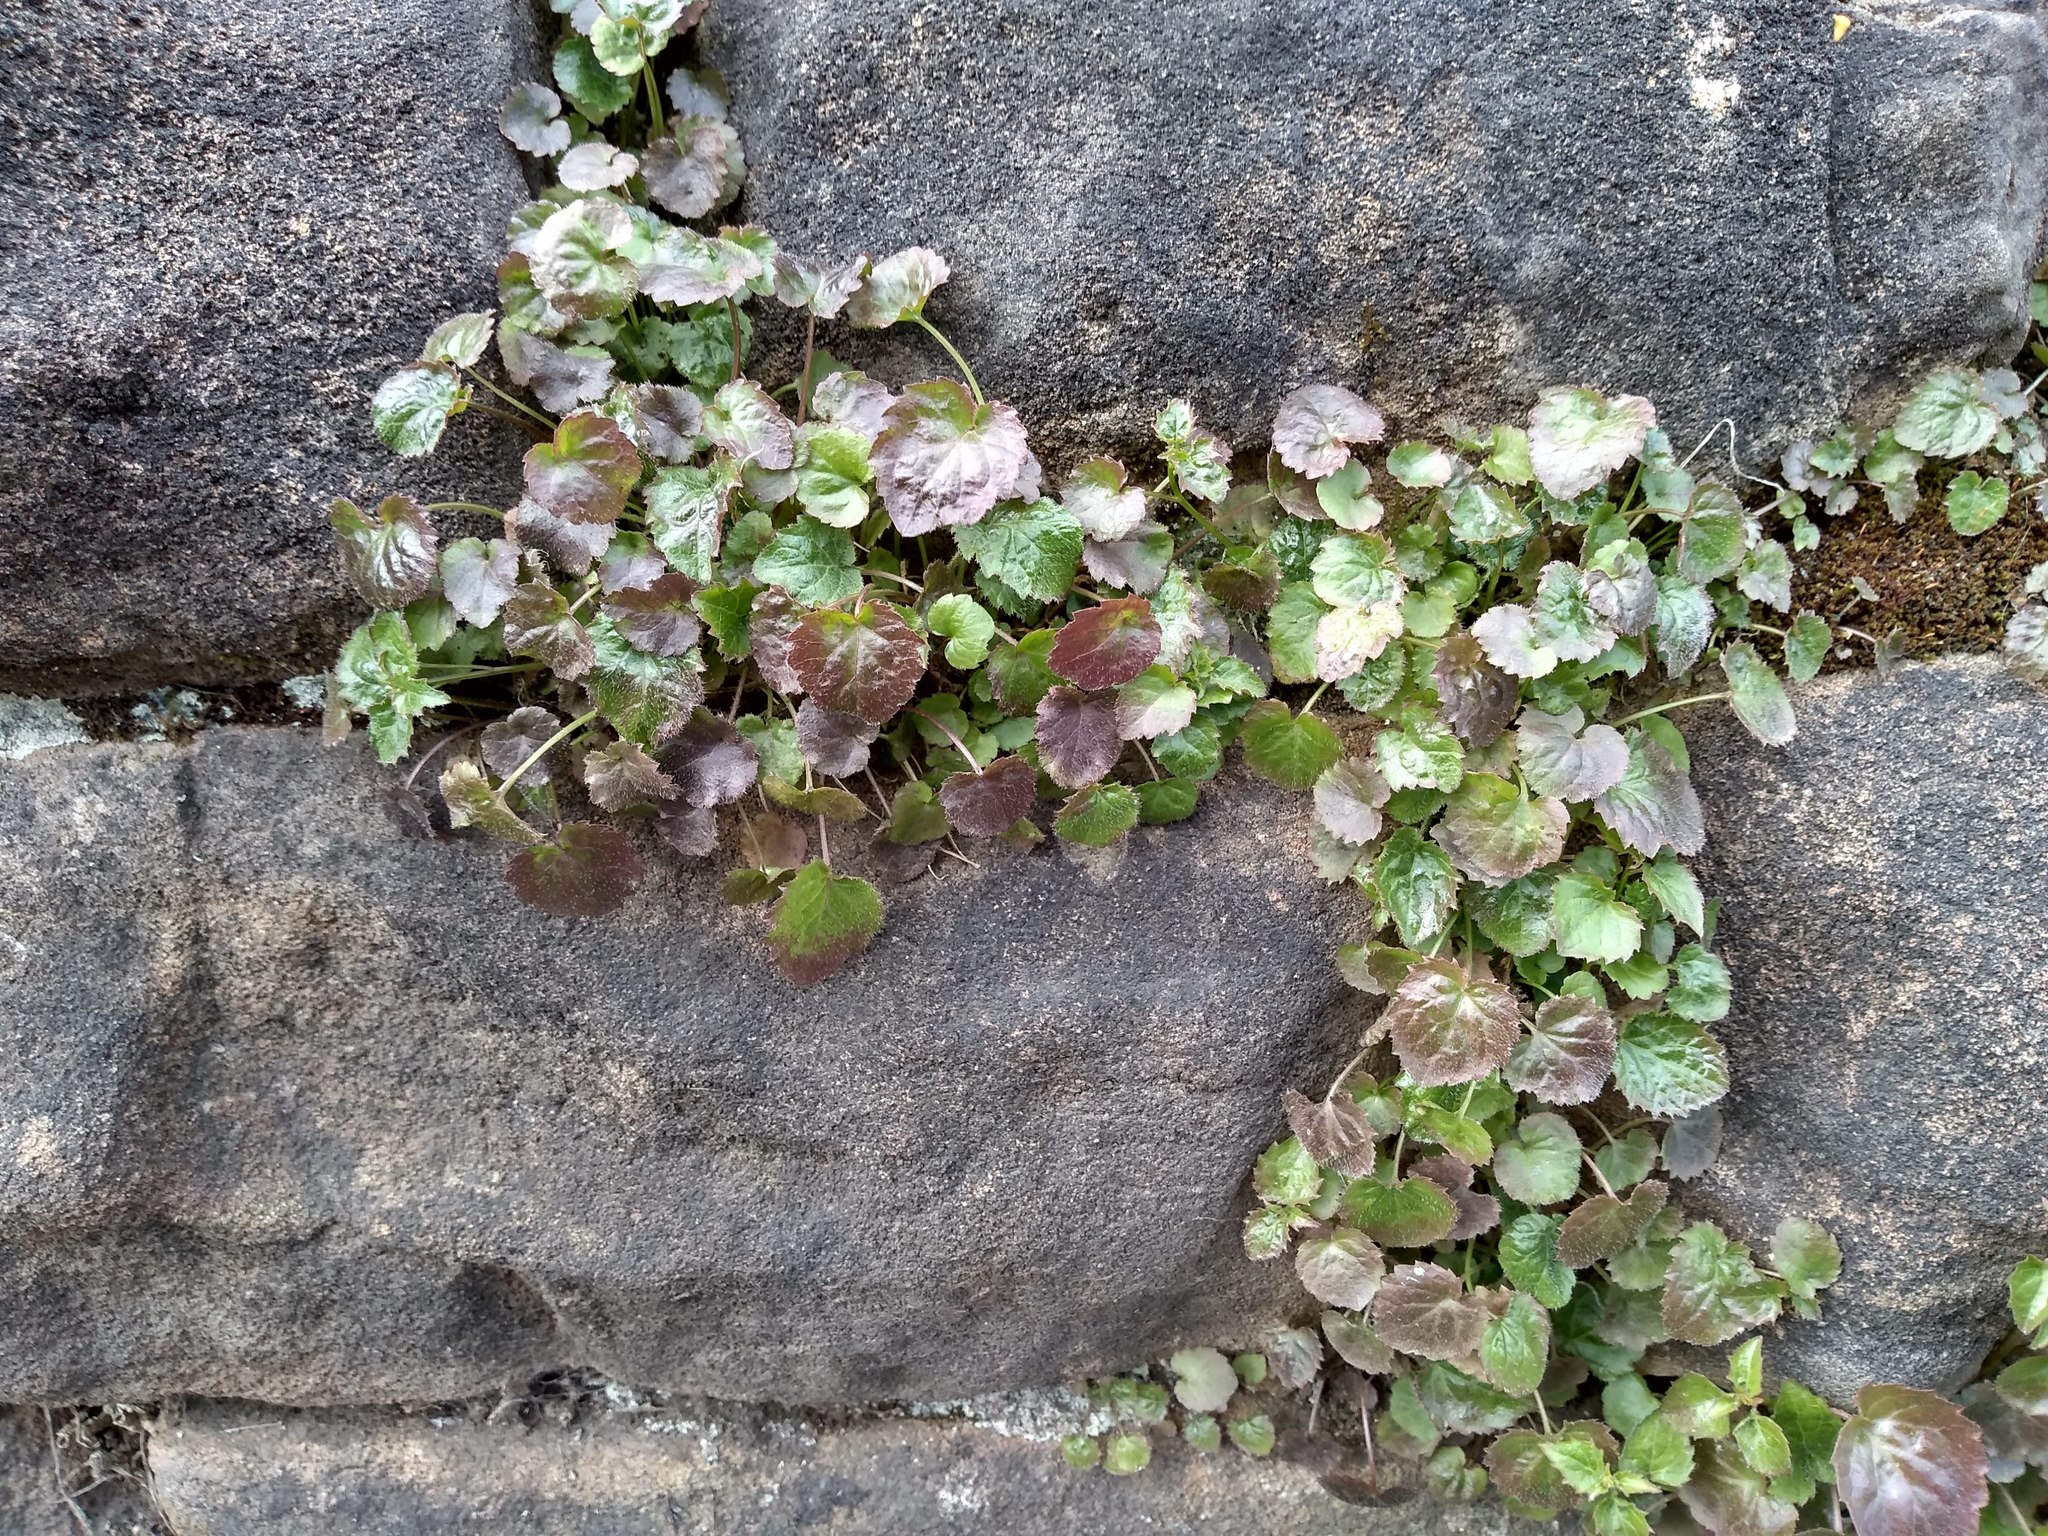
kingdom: Plantae
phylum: Tracheophyta
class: Magnoliopsida
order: Asterales
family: Campanulaceae
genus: Campanula
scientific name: Campanula poscharskyana
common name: Trailing bellflower
